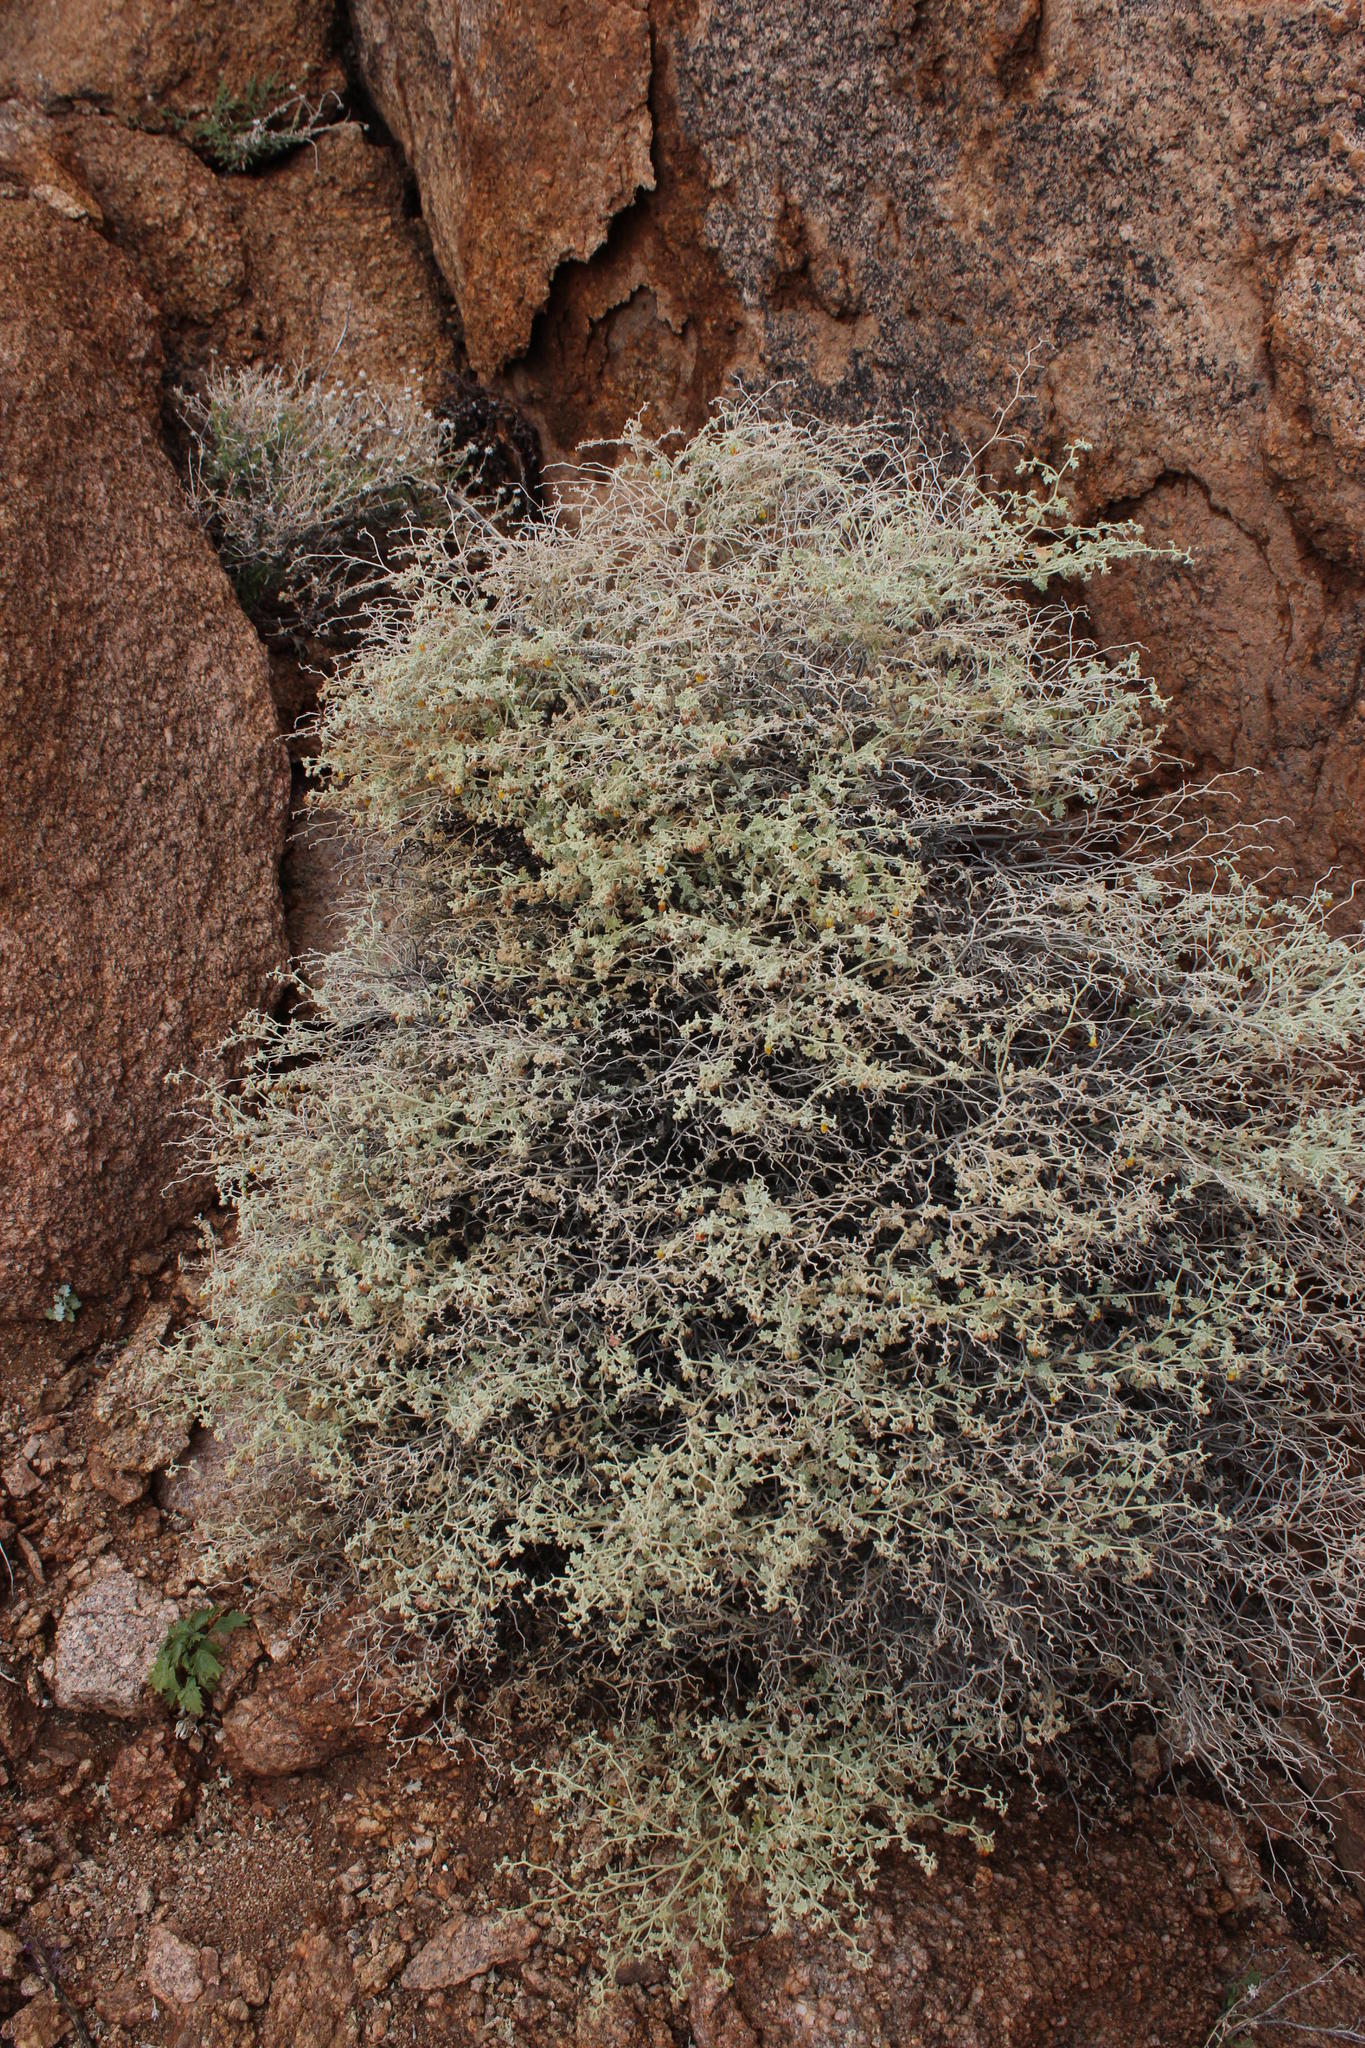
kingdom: Plantae
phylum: Tracheophyta
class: Magnoliopsida
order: Malvales
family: Malvaceae
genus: Hermannia
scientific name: Hermannia minutiflora
